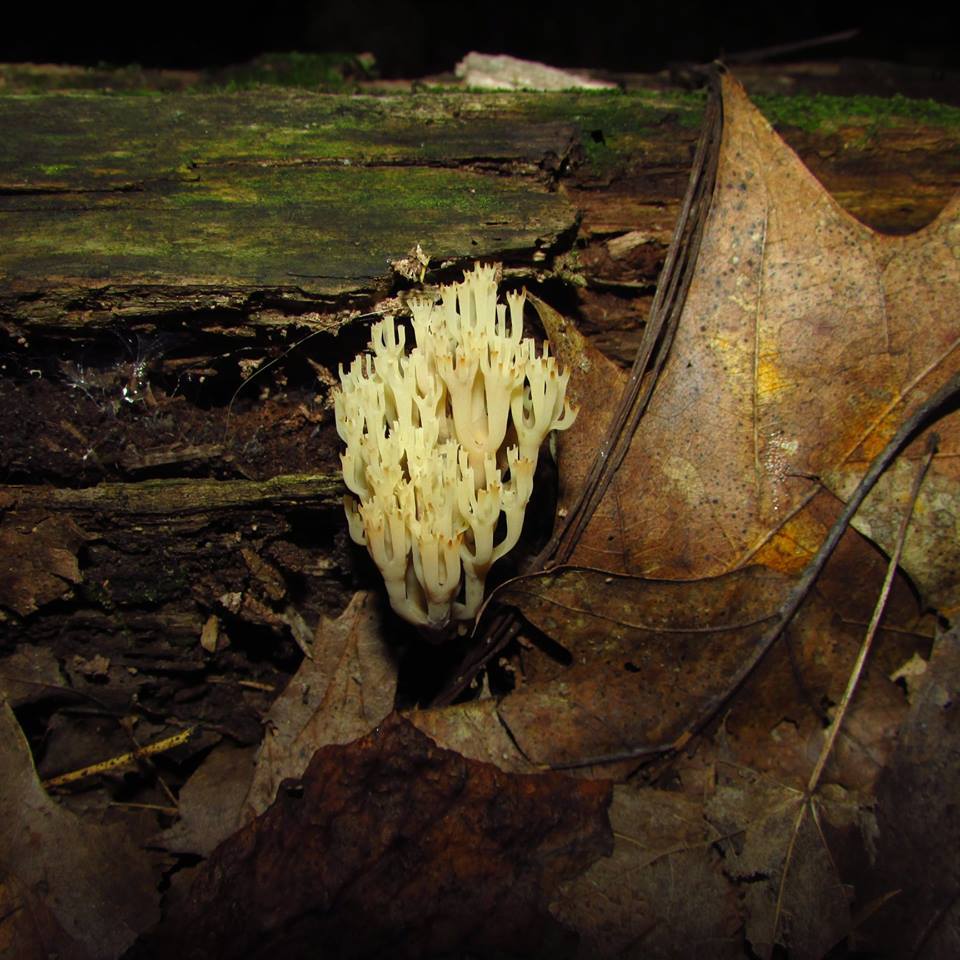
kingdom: Fungi
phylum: Basidiomycota
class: Agaricomycetes
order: Russulales
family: Auriscalpiaceae
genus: Artomyces
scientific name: Artomyces pyxidatus
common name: Crown-tipped coral fungus
